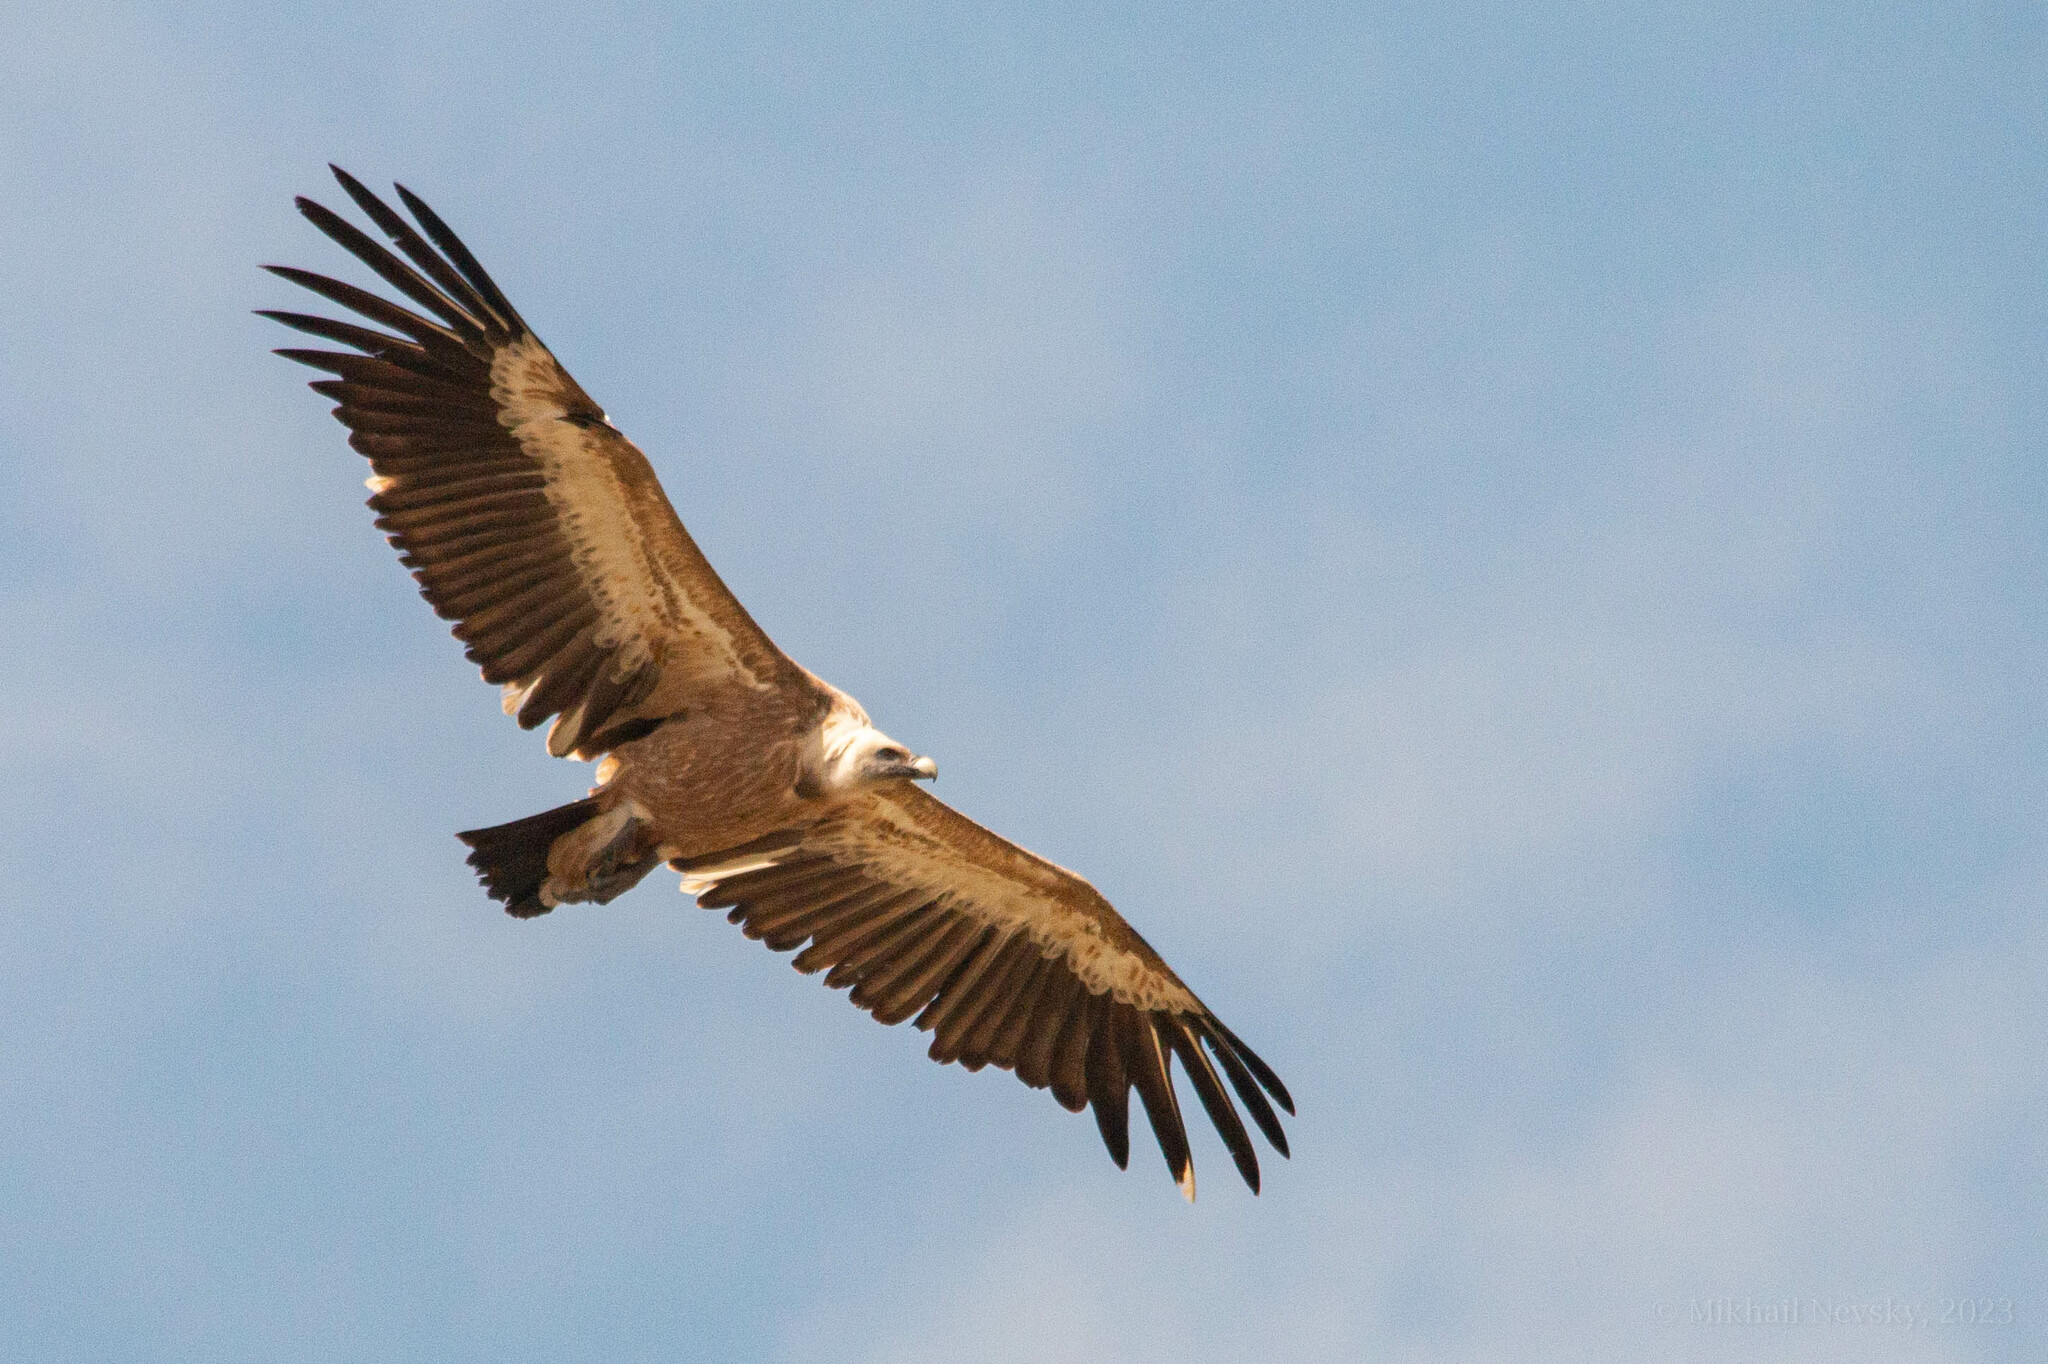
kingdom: Animalia
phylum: Chordata
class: Aves
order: Accipitriformes
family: Accipitridae
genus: Gyps
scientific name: Gyps fulvus
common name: Griffon vulture
